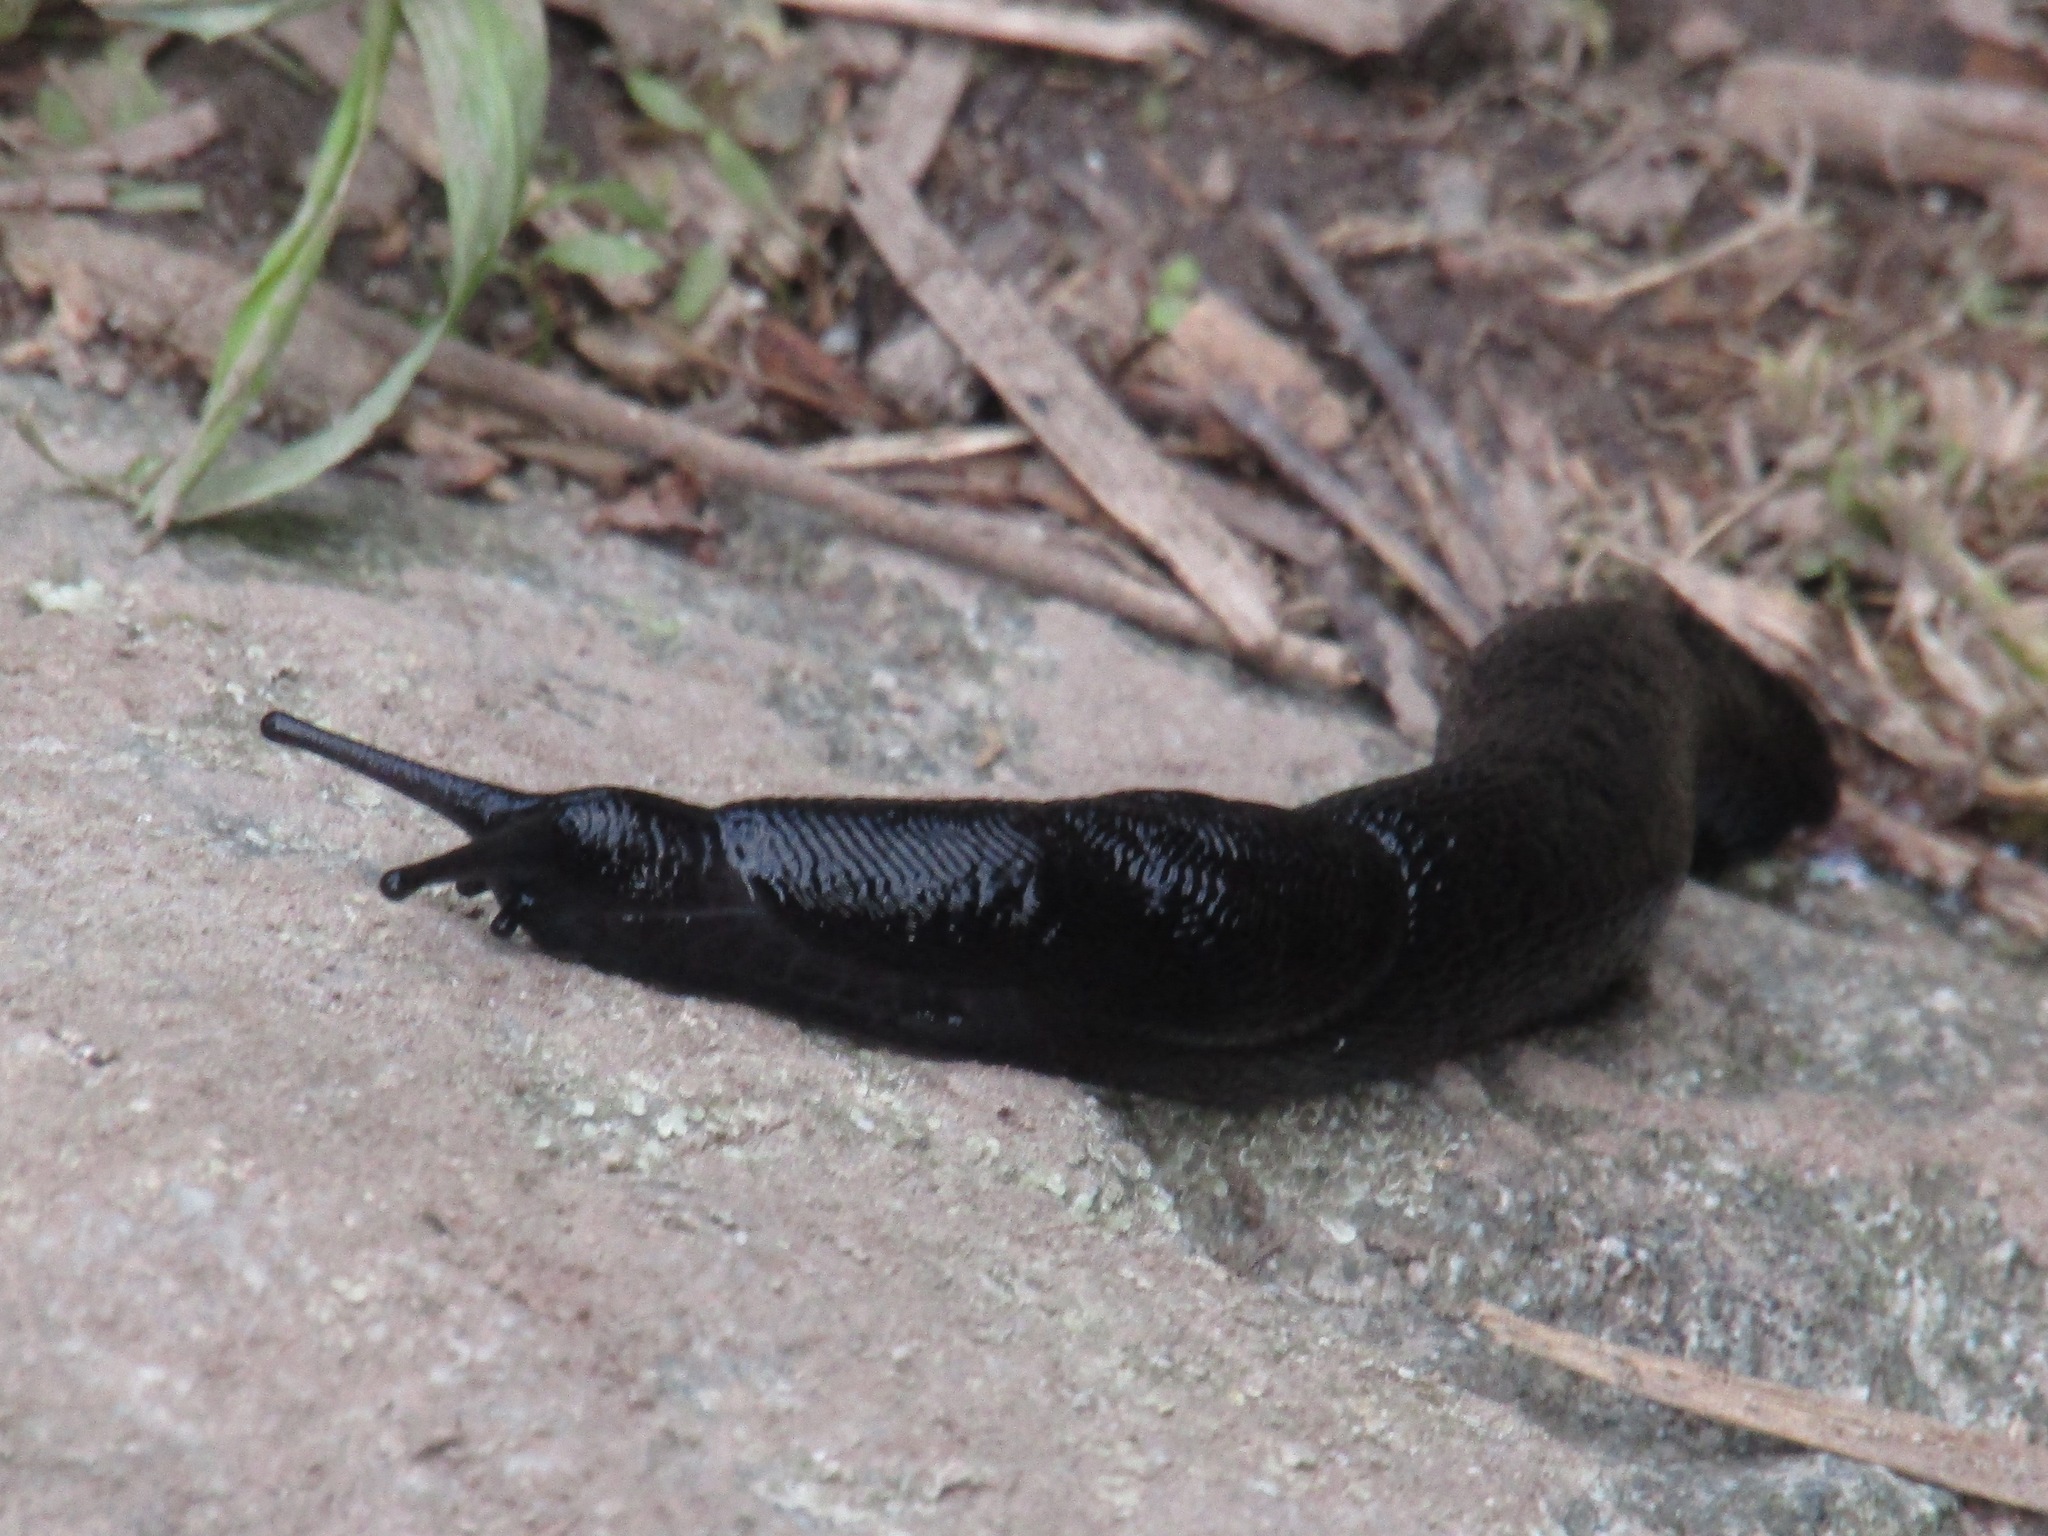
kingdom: Animalia
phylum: Mollusca
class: Gastropoda
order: Stylommatophora
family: Limacidae
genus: Turcomilax
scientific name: Turcomilax turkestanus
